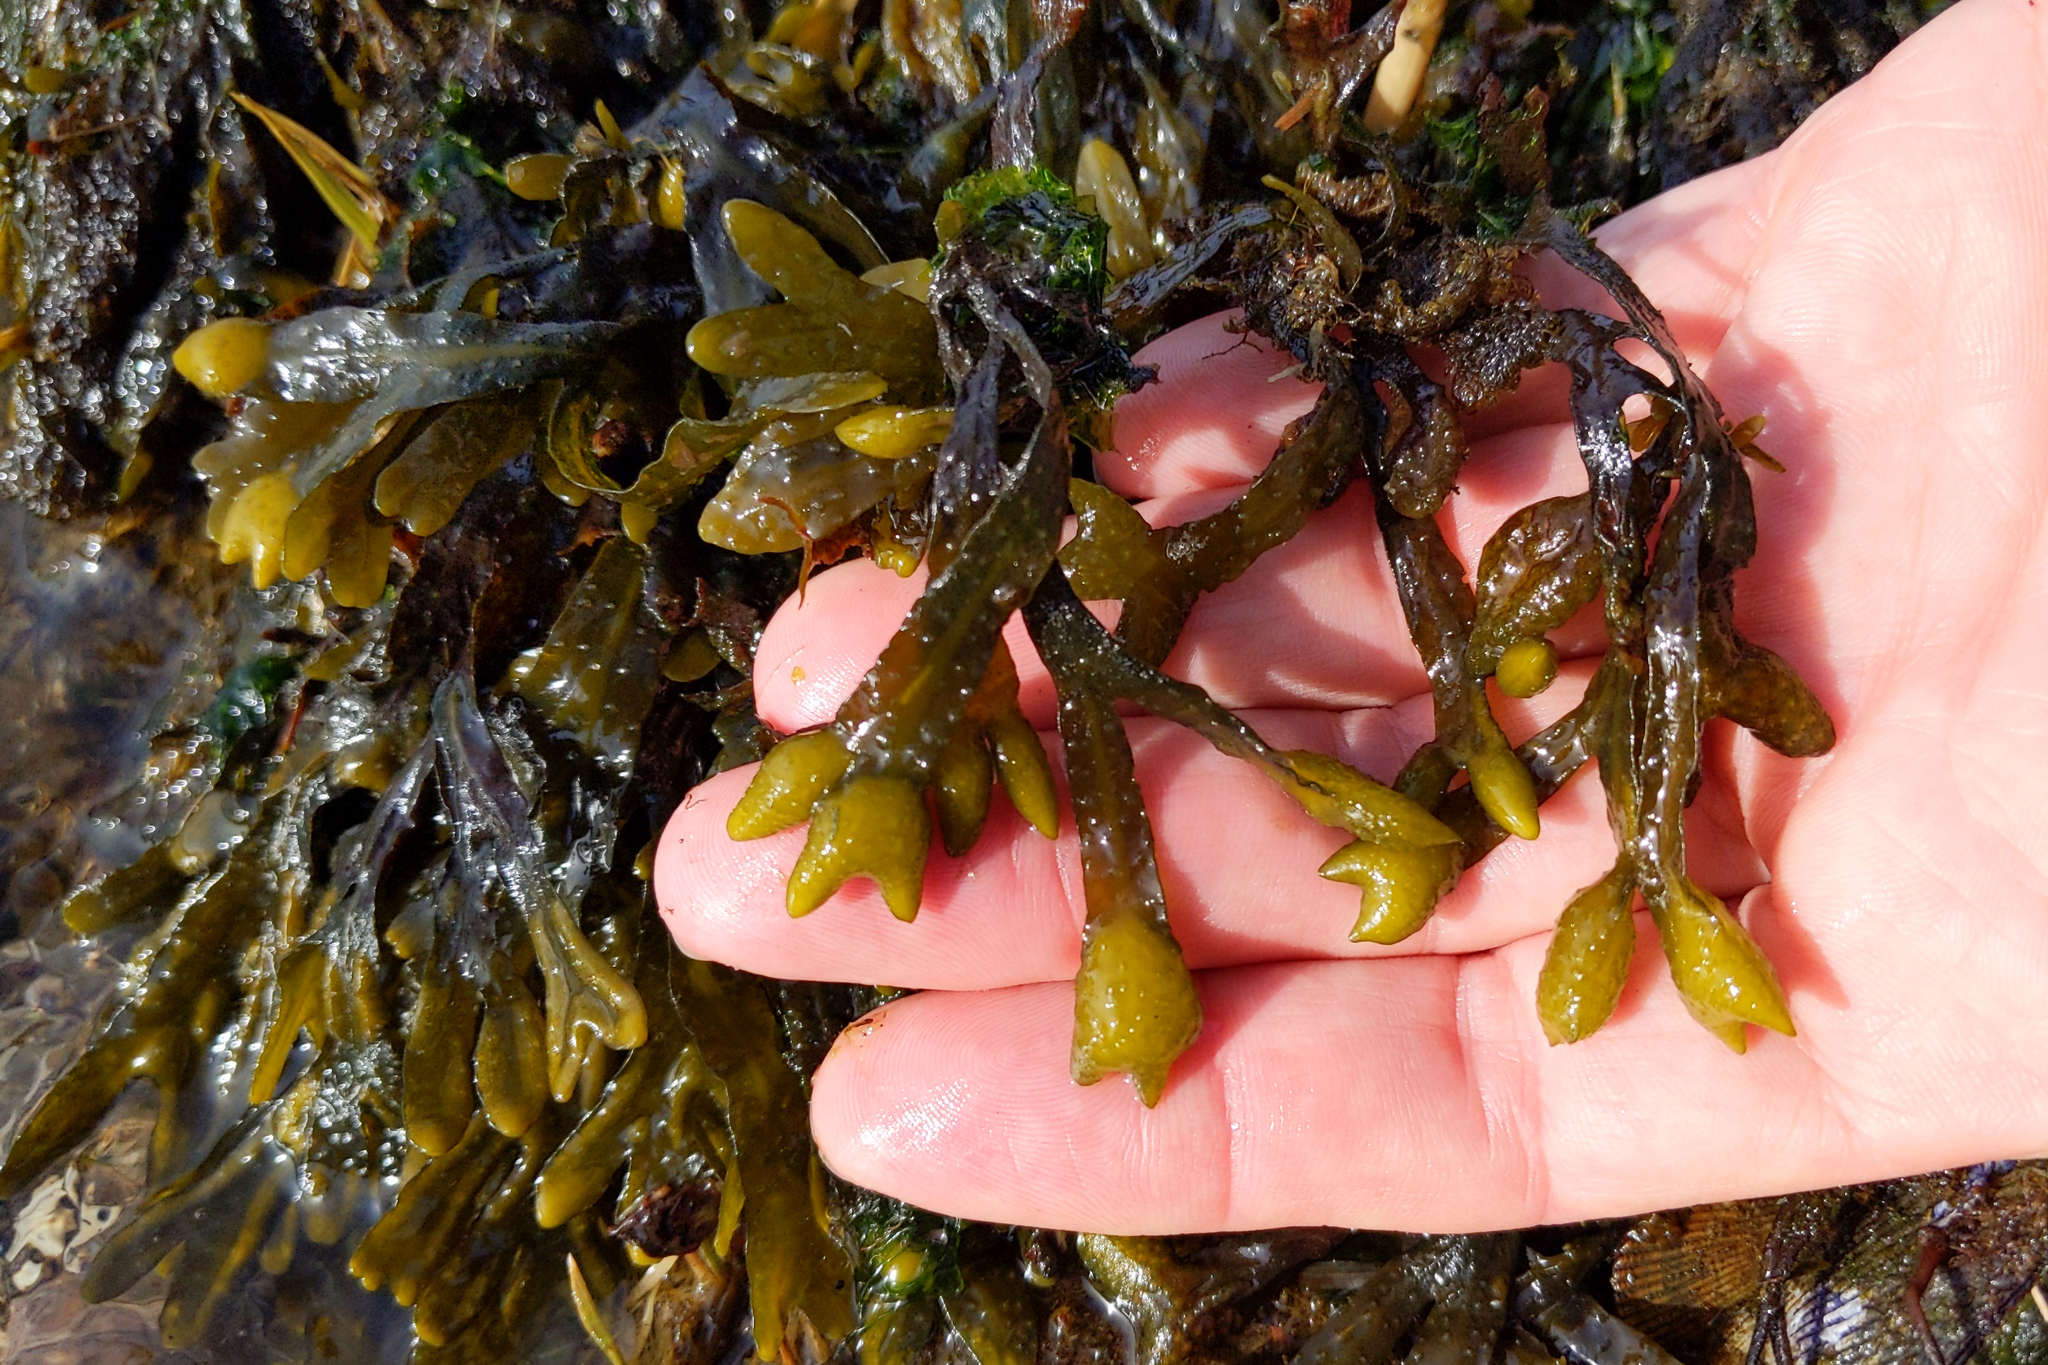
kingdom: Chromista
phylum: Ochrophyta
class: Phaeophyceae
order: Fucales
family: Fucaceae
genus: Fucus
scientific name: Fucus distichus
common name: Rockweed
